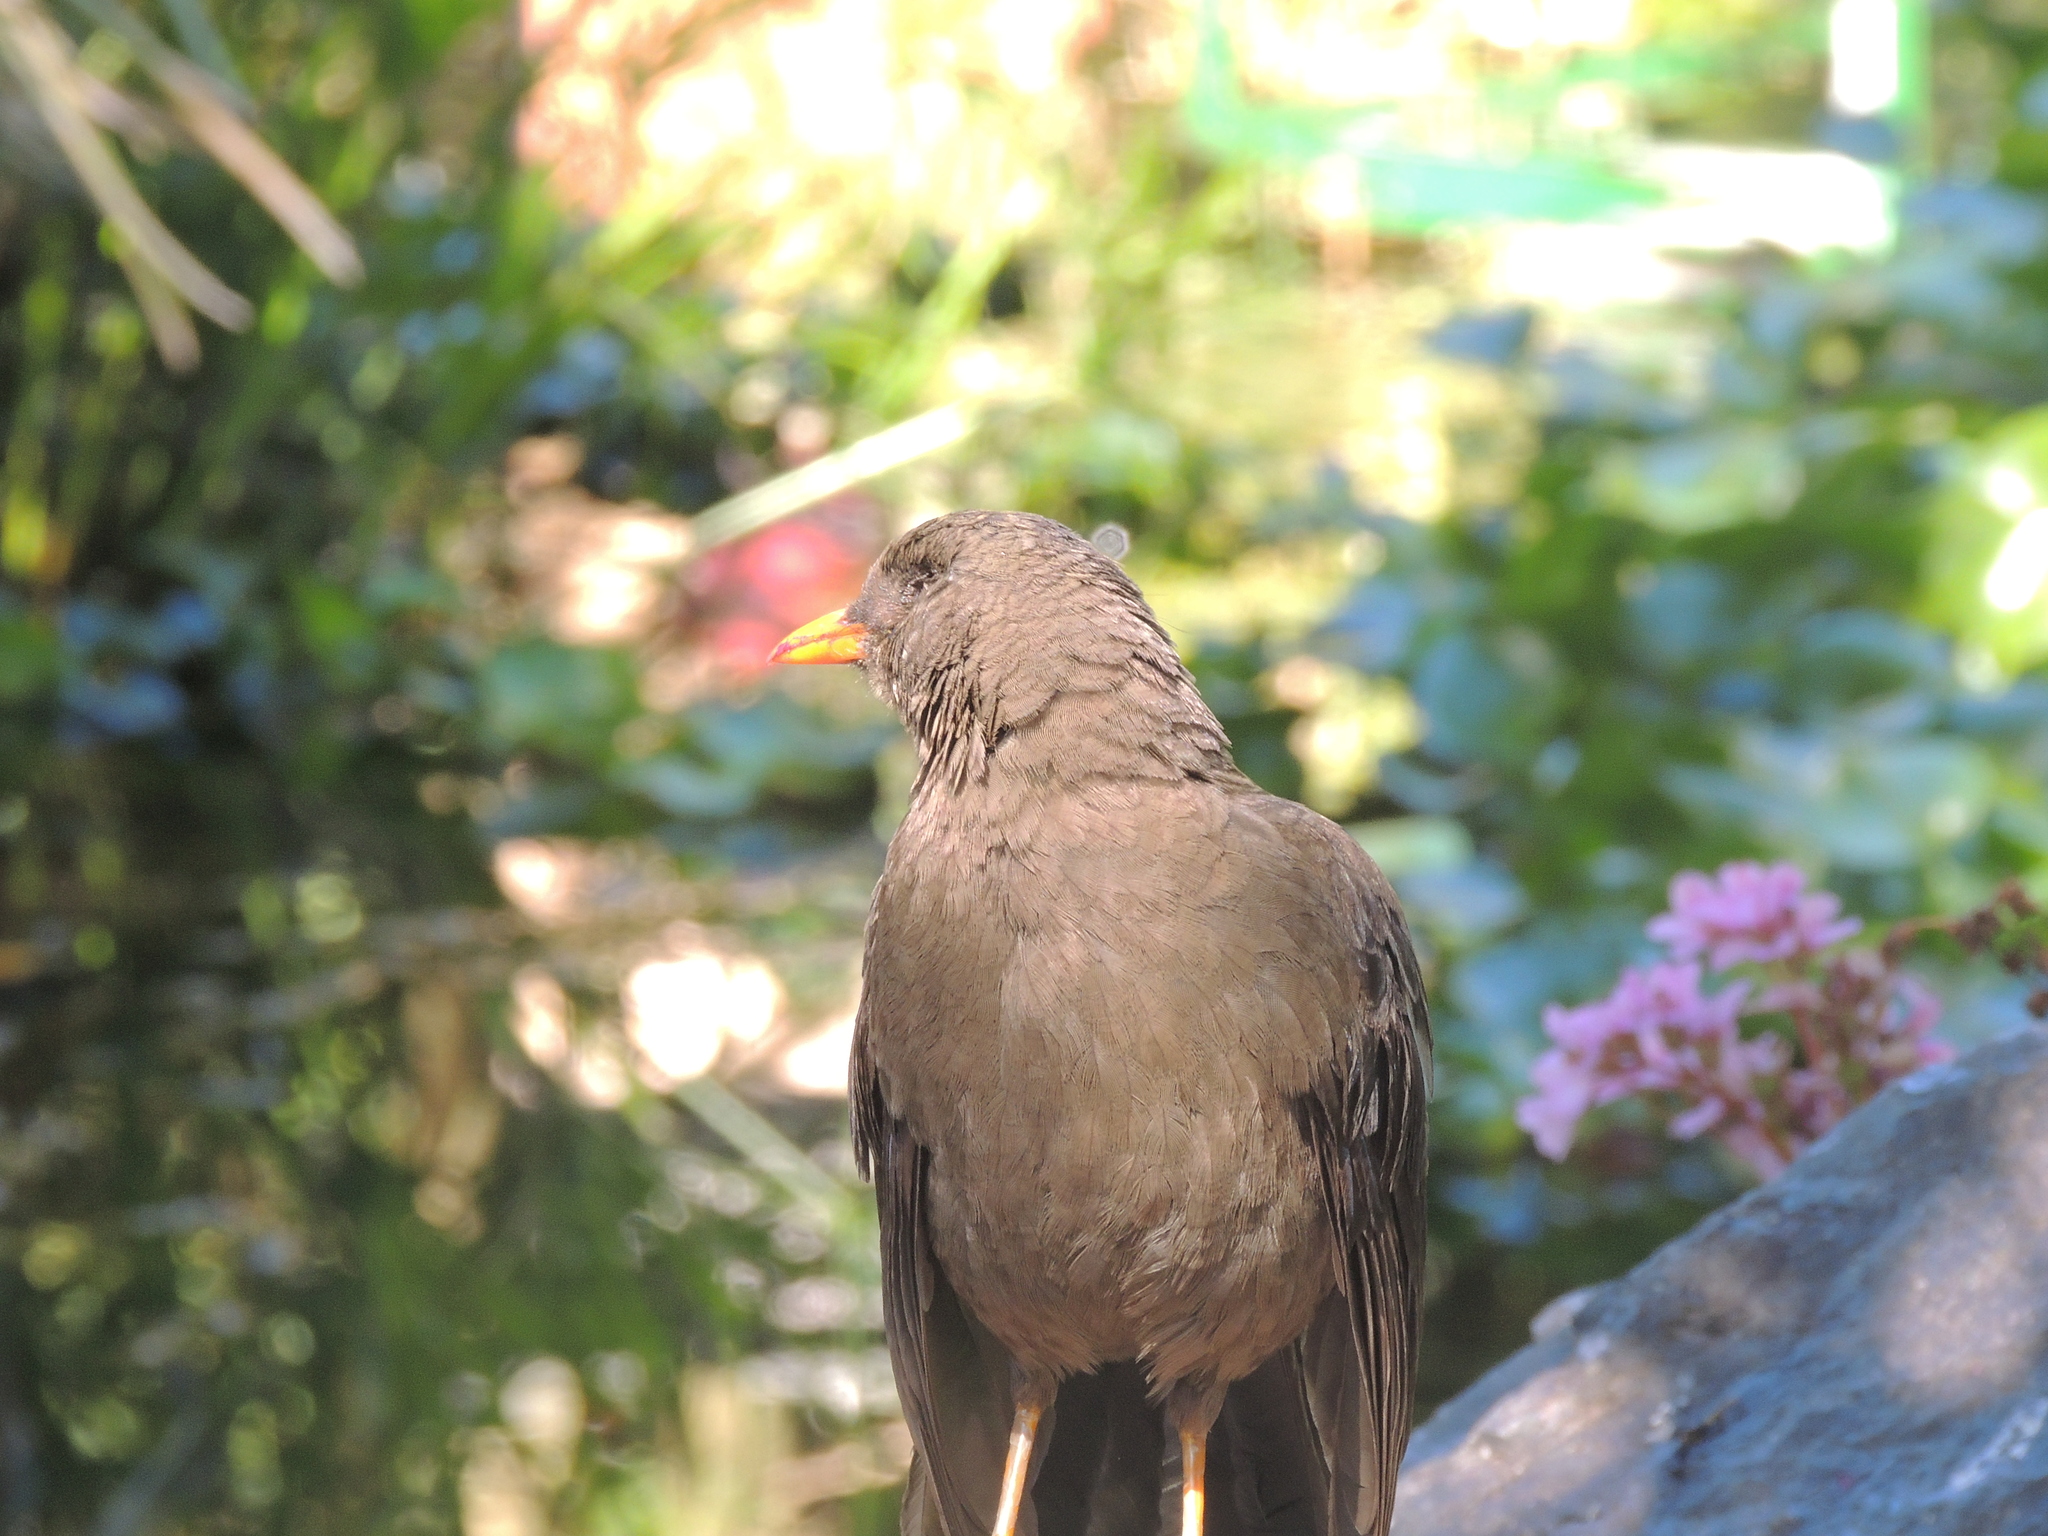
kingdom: Animalia
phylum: Chordata
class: Aves
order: Passeriformes
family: Turdidae
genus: Turdus
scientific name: Turdus fuscater
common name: Great thrush
